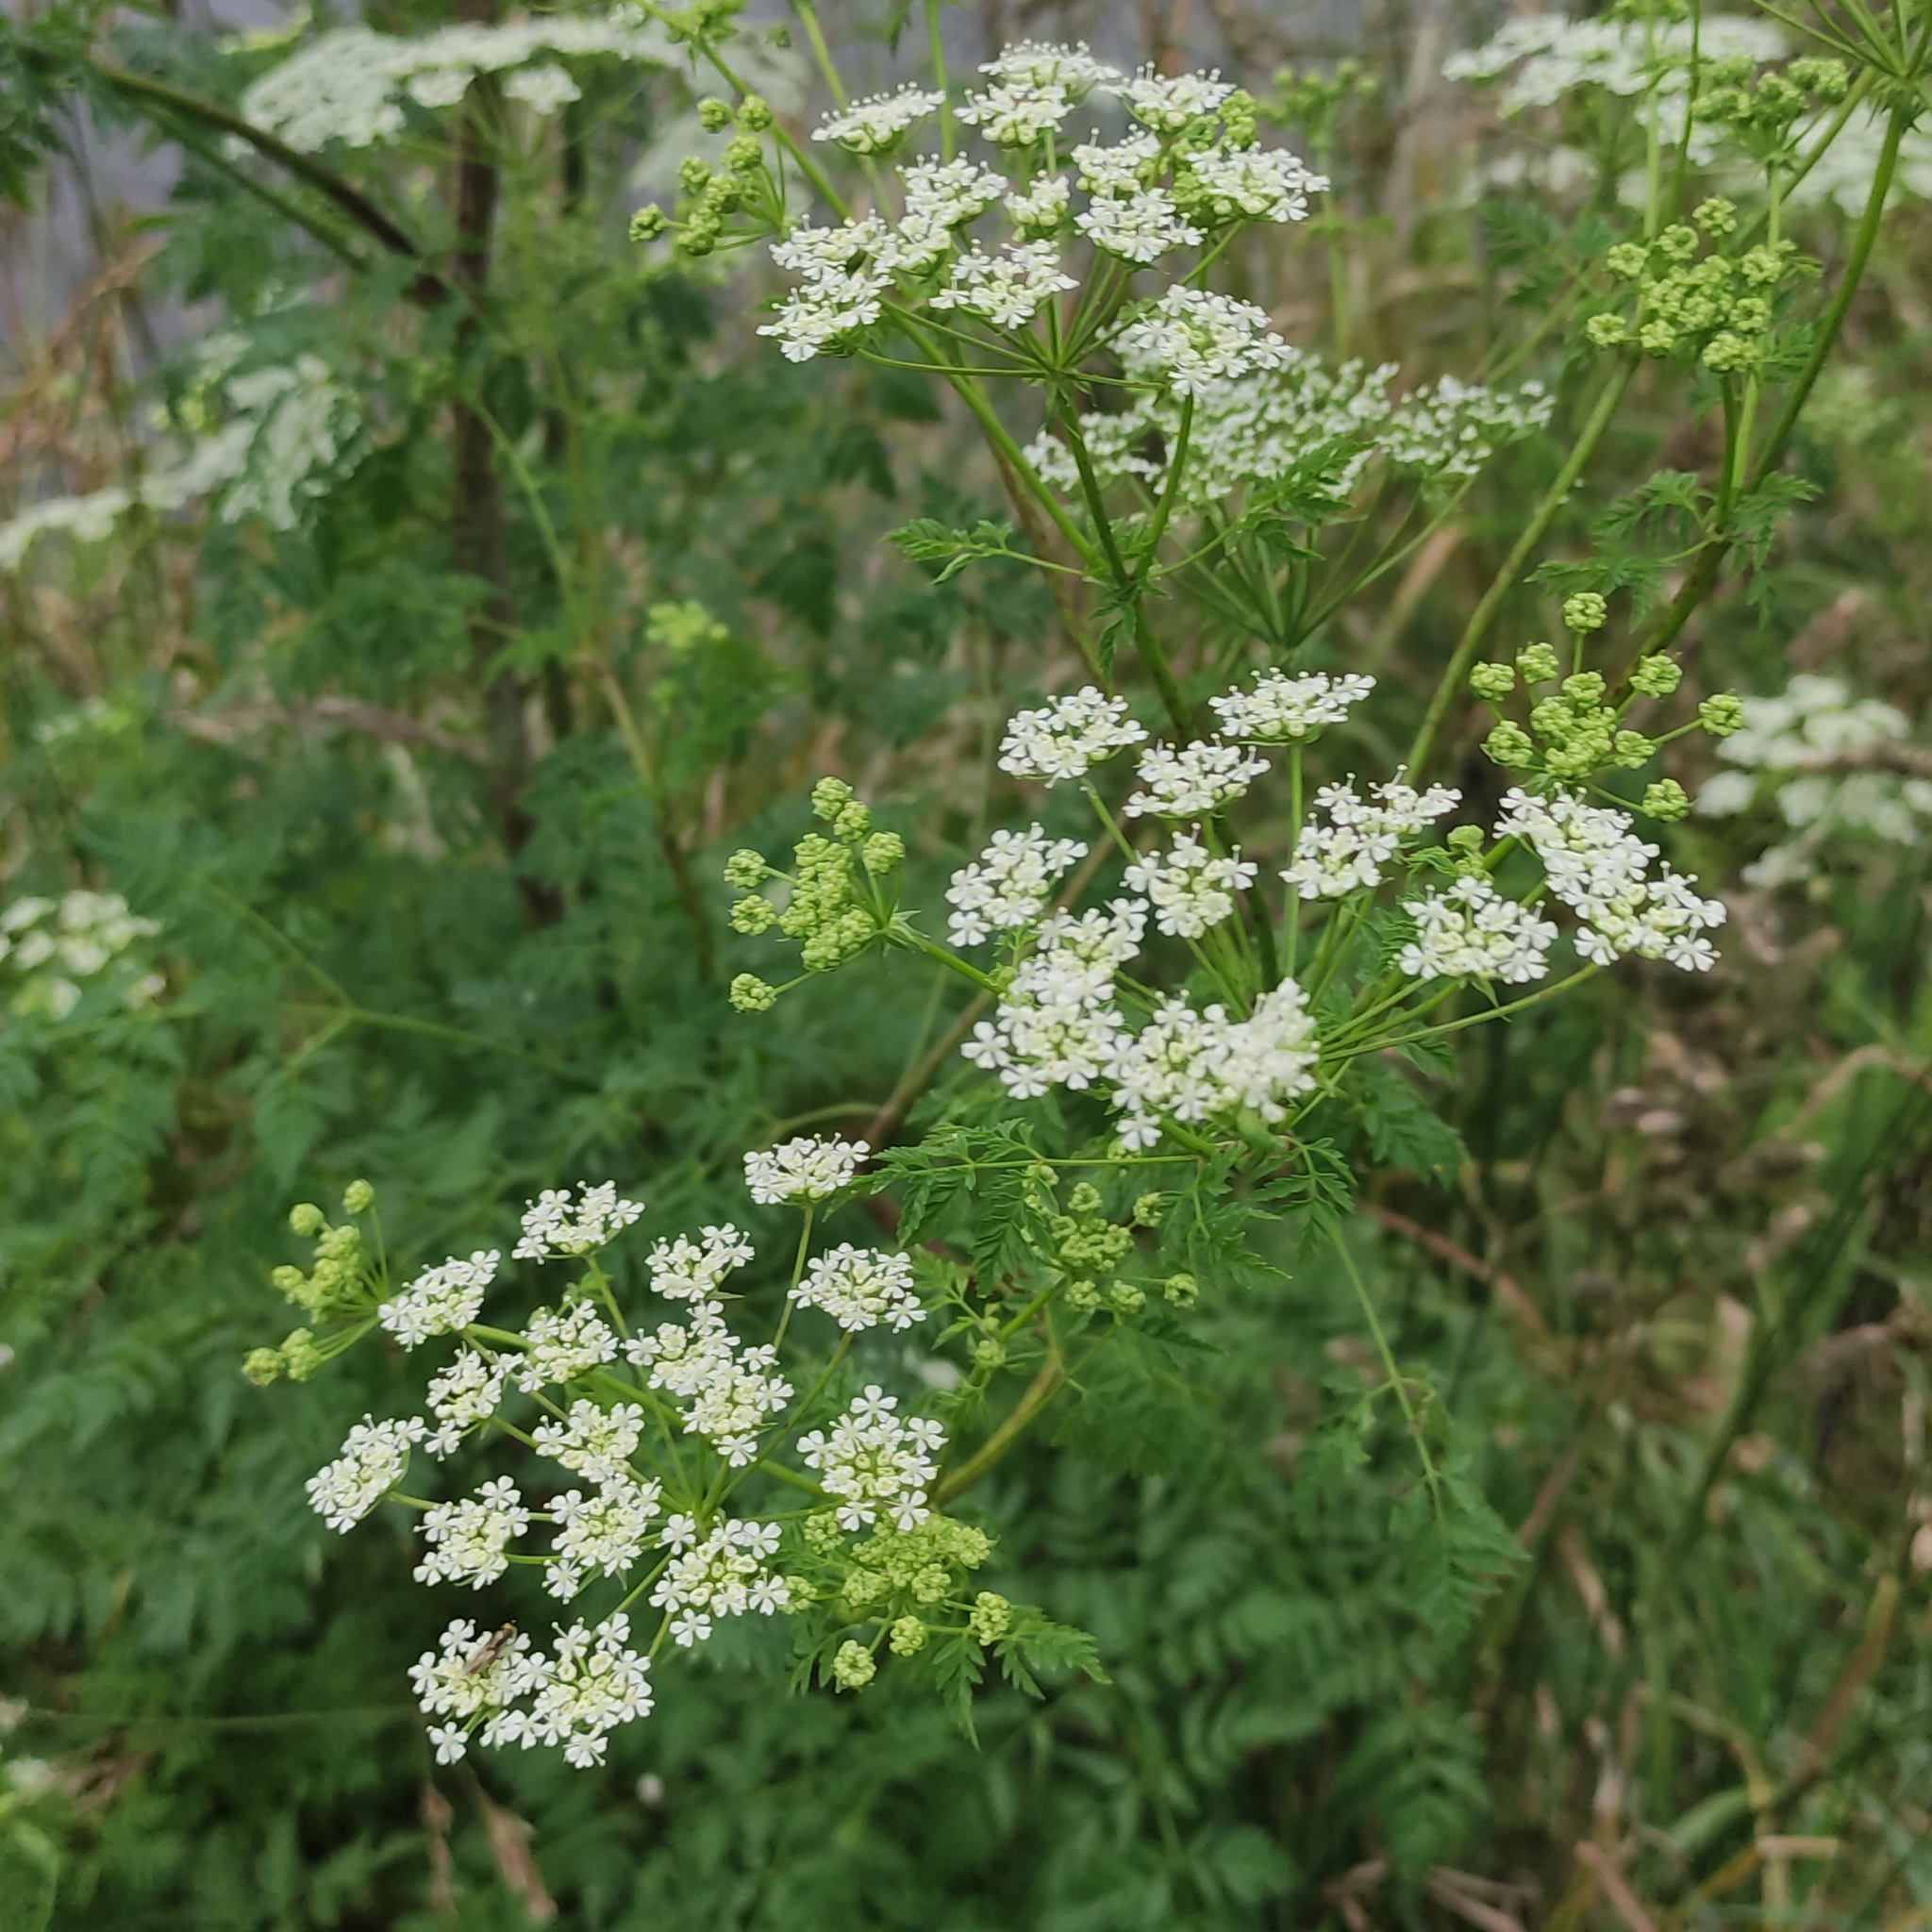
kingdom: Plantae
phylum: Tracheophyta
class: Magnoliopsida
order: Apiales
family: Apiaceae
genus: Conium
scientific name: Conium maculatum
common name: Hemlock
